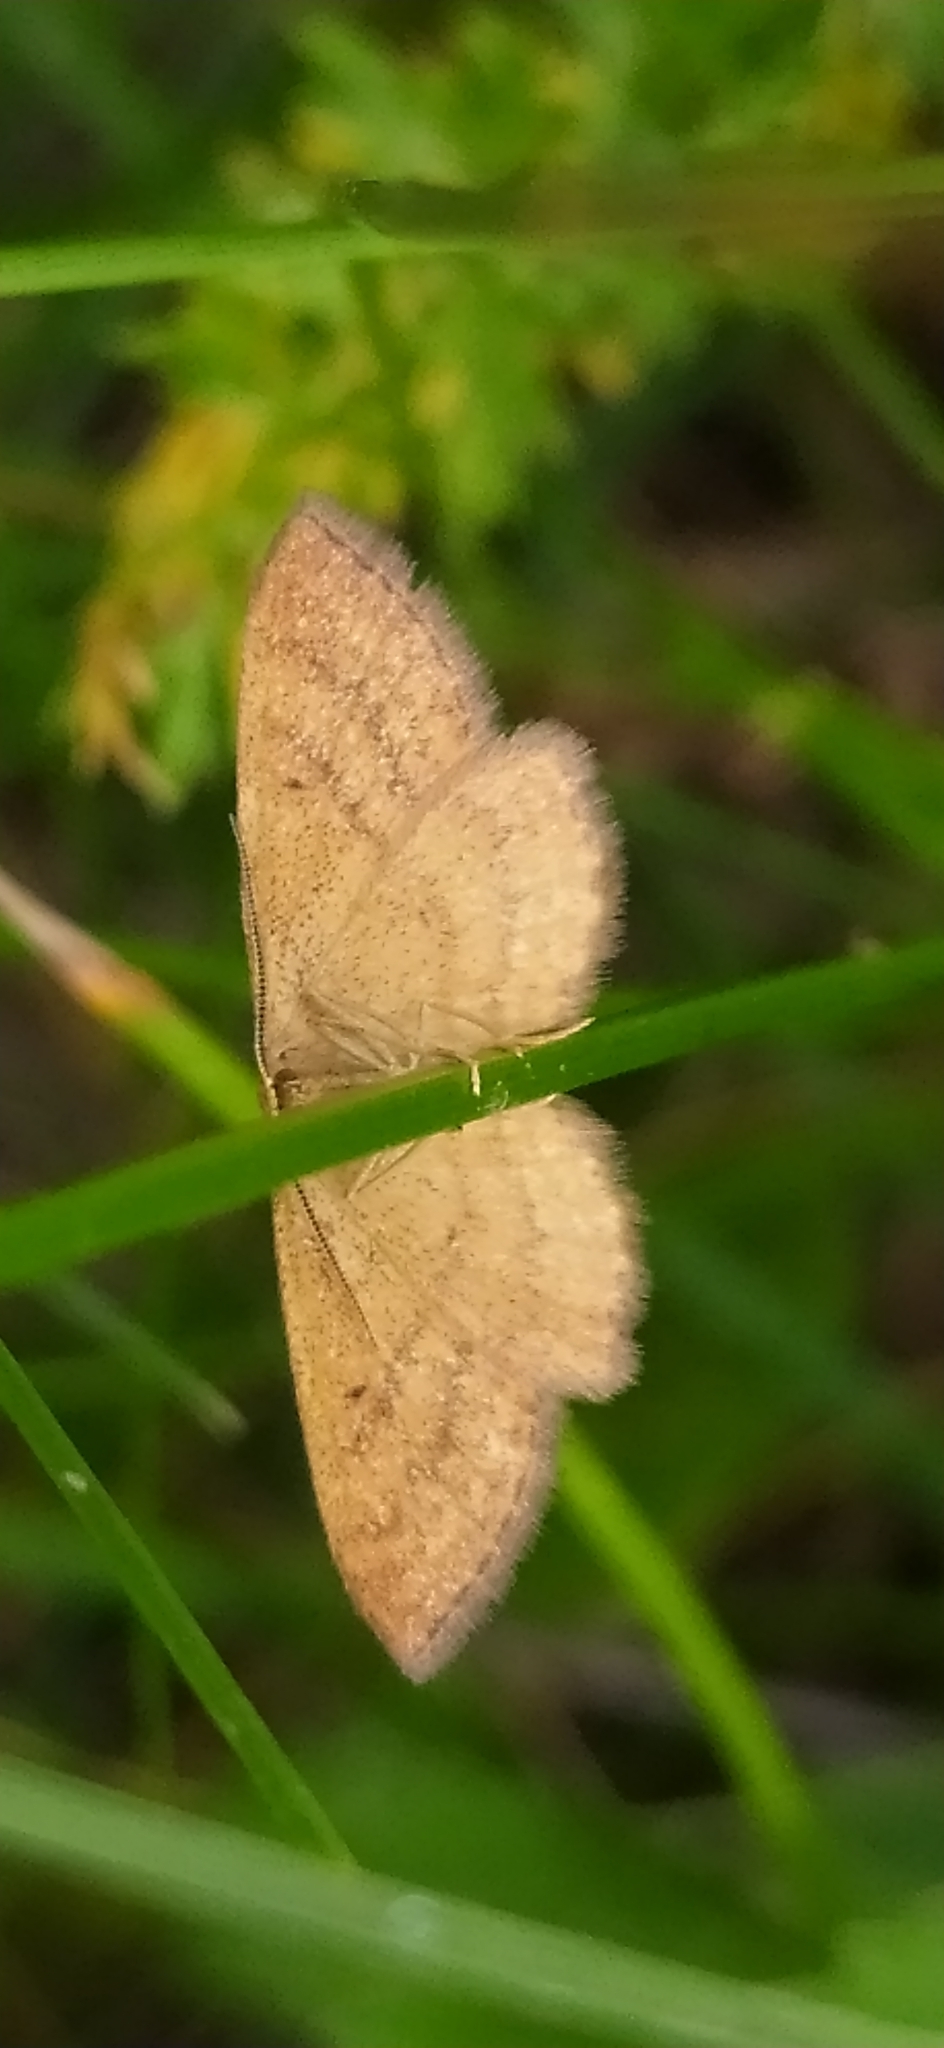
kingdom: Animalia
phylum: Arthropoda
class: Insecta
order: Lepidoptera
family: Geometridae
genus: Idaea
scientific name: Idaea serpentata
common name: Ochraceous wave
